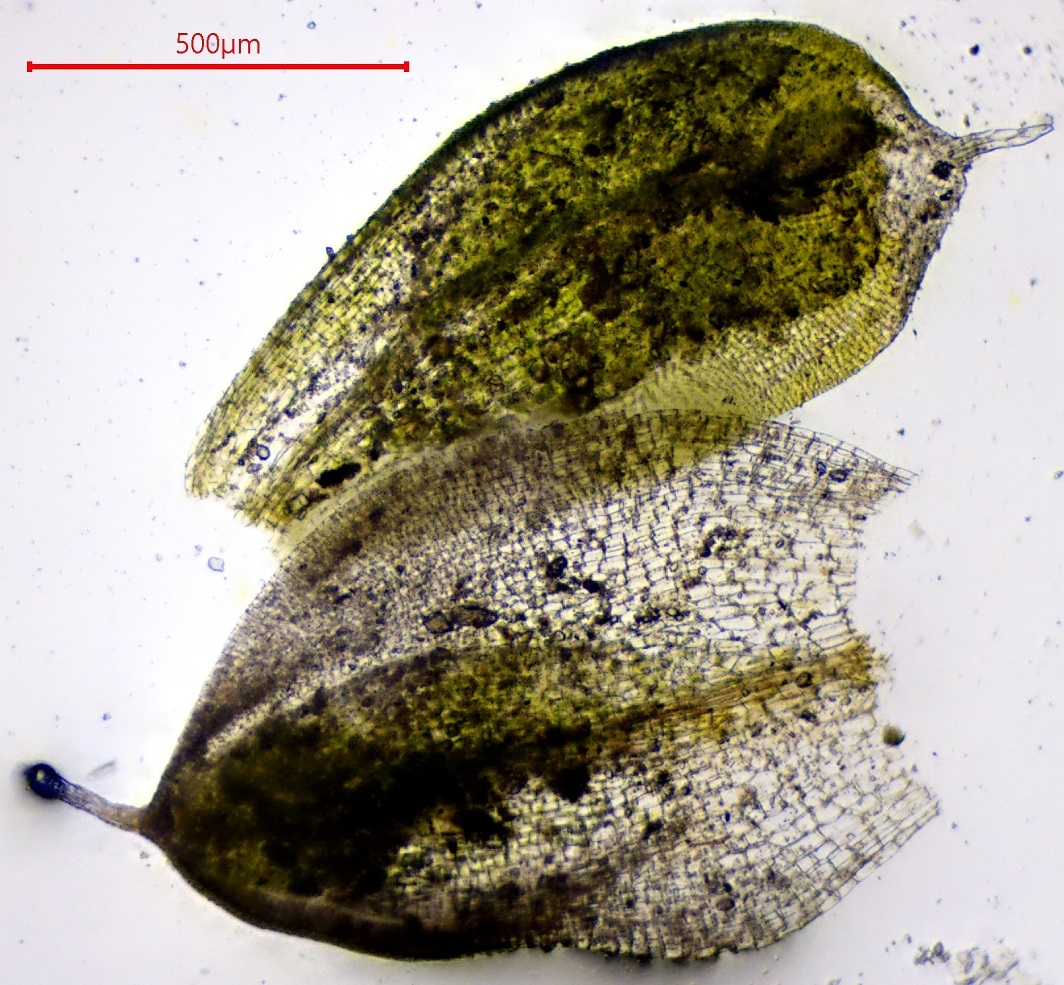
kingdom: Plantae
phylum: Bryophyta
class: Bryopsida
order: Pottiales
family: Pottiaceae
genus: Pterygoneurum
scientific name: Pterygoneurum ovatum
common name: Ovate pterygoneurum
